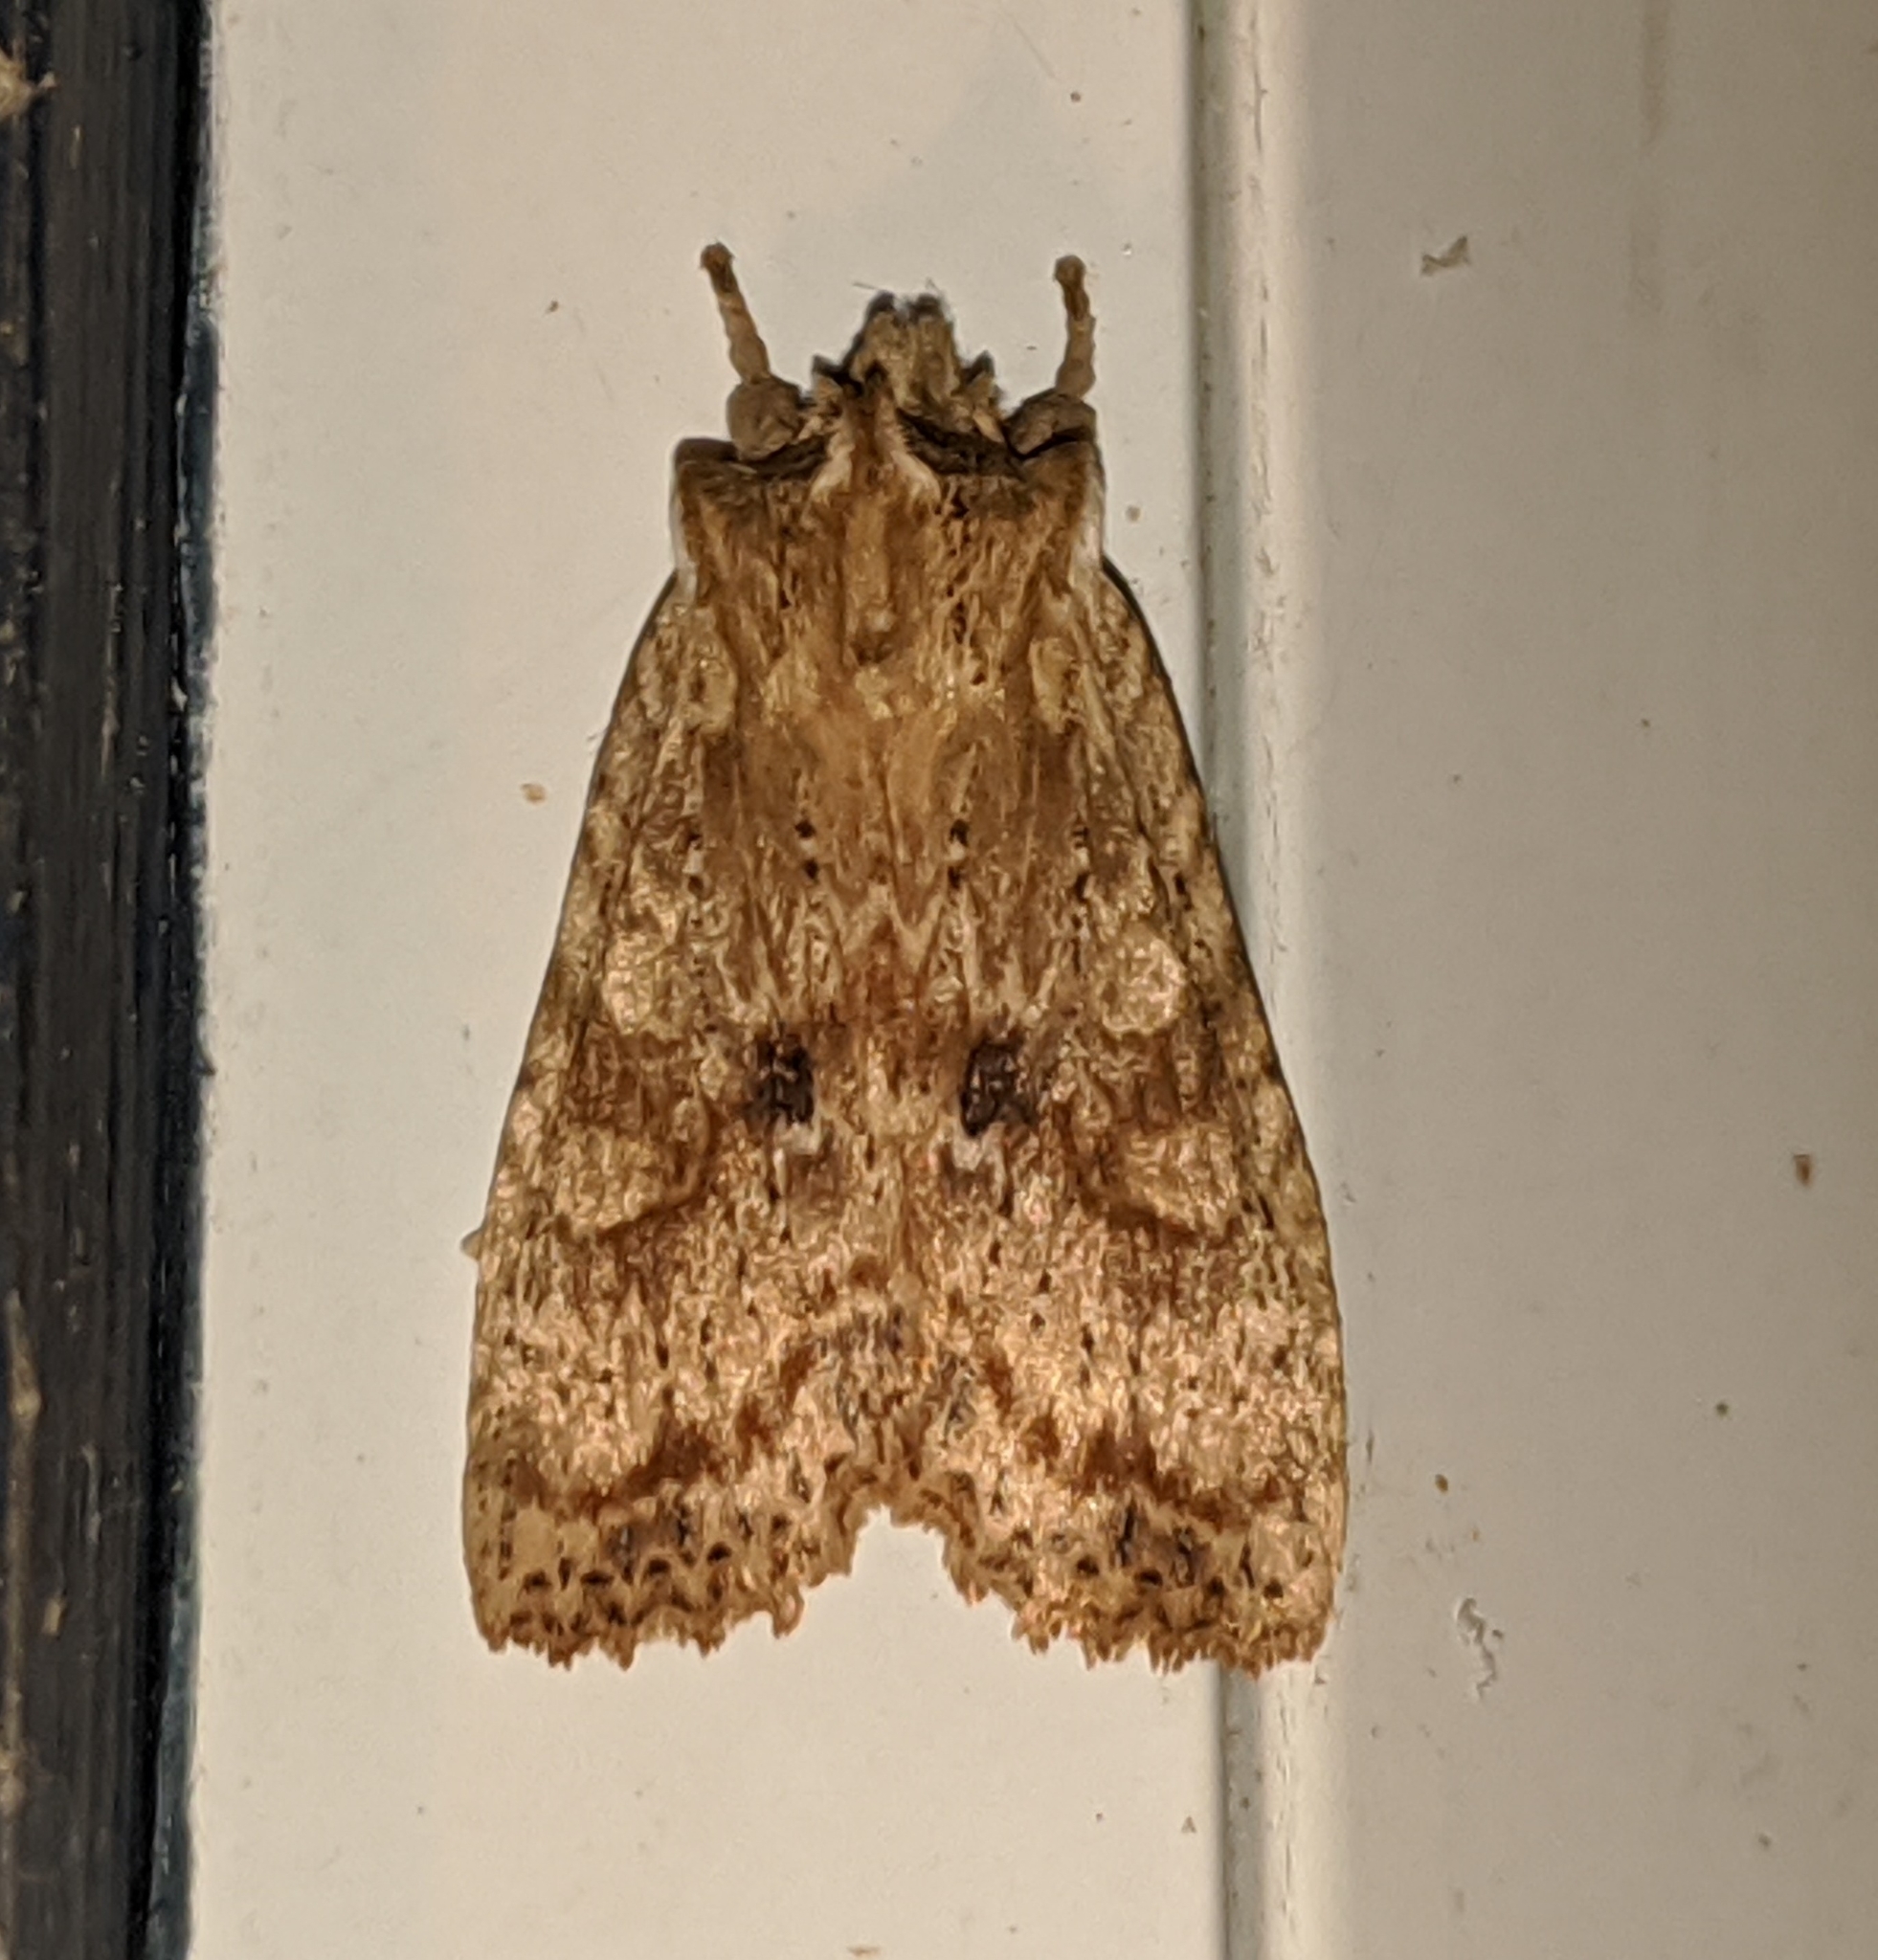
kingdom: Animalia
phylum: Arthropoda
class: Insecta
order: Lepidoptera
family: Noctuidae
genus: Lithophane
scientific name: Lithophane innominata
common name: Nameless pinion moth
